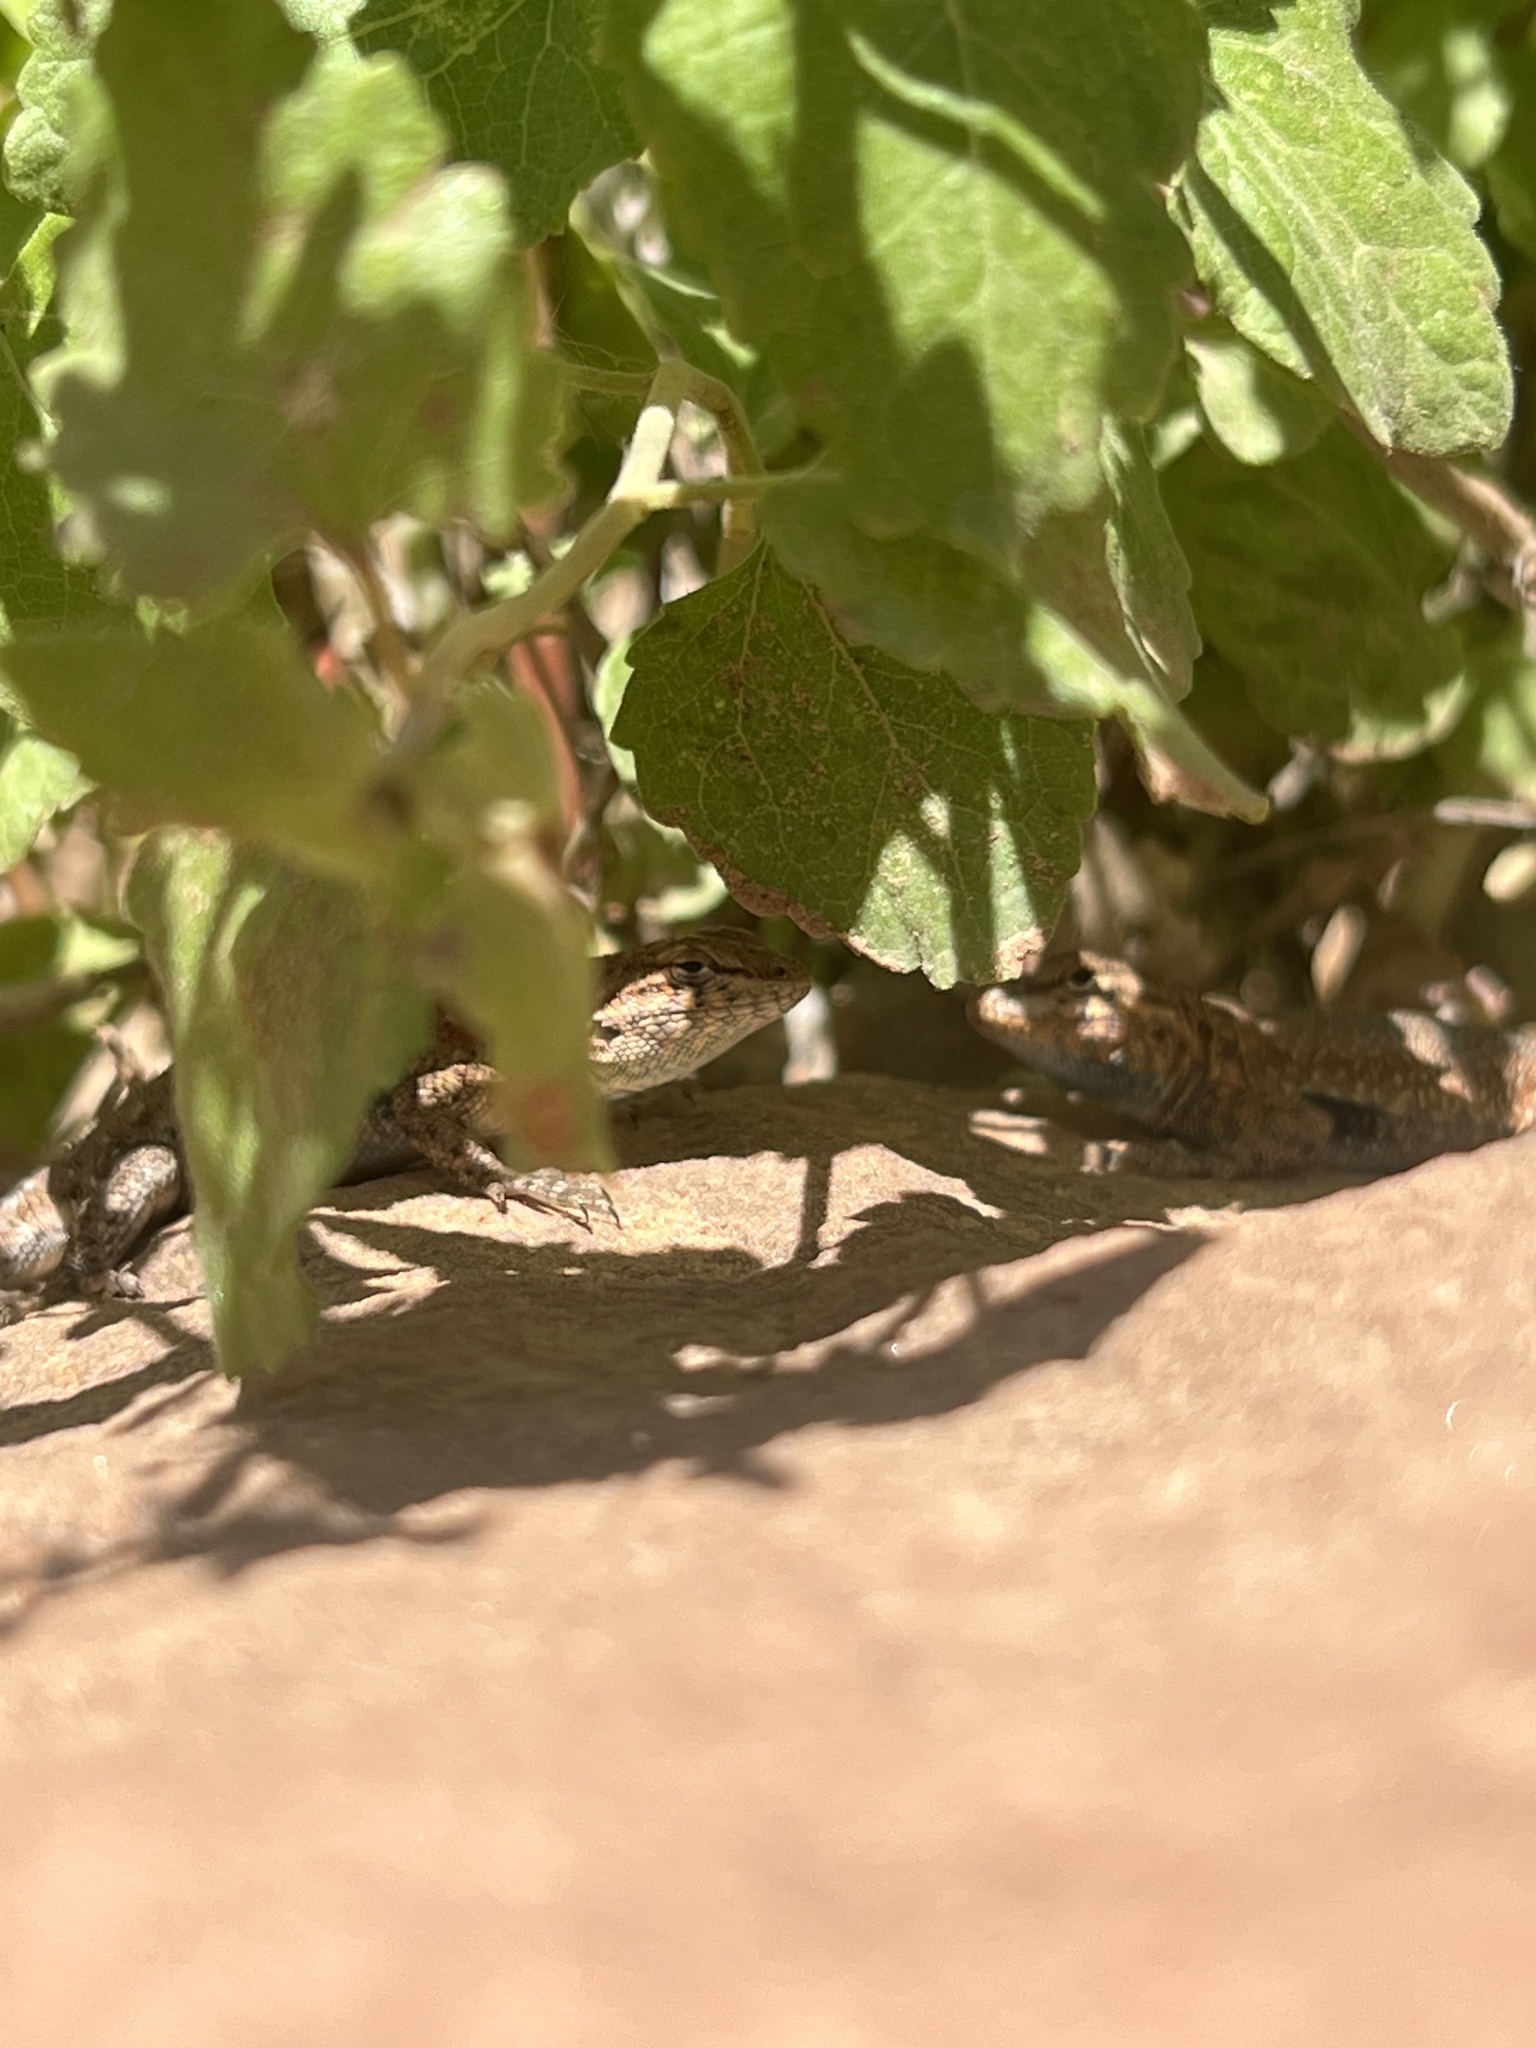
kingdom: Animalia
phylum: Chordata
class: Squamata
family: Phrynosomatidae
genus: Uta
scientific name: Uta stansburiana
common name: Side-blotched lizard
